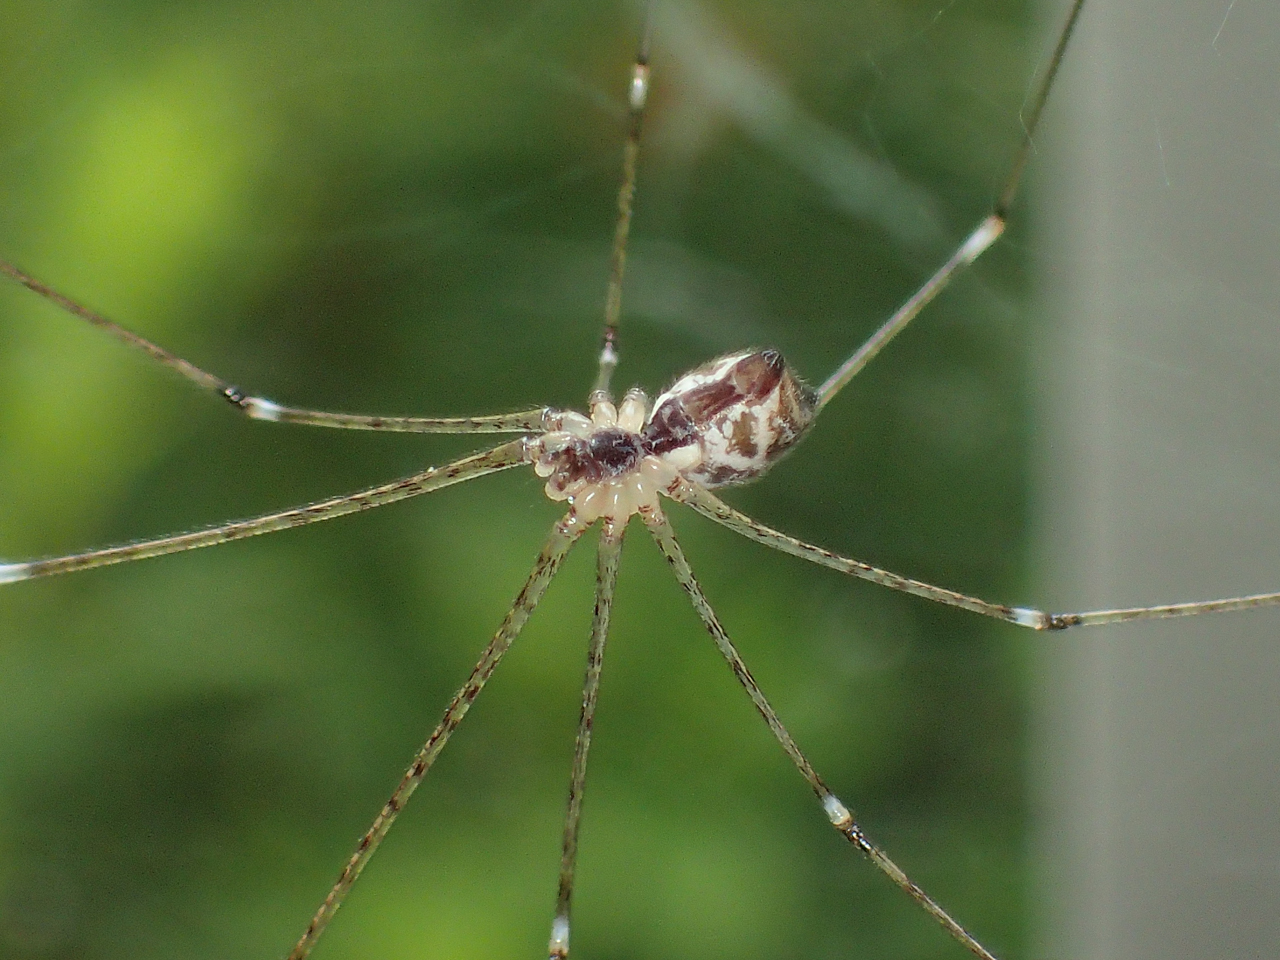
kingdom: Animalia
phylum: Arthropoda
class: Arachnida
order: Araneae
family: Pholcidae
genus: Crossopriza
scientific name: Crossopriza lyoni
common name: Cellar spiders
